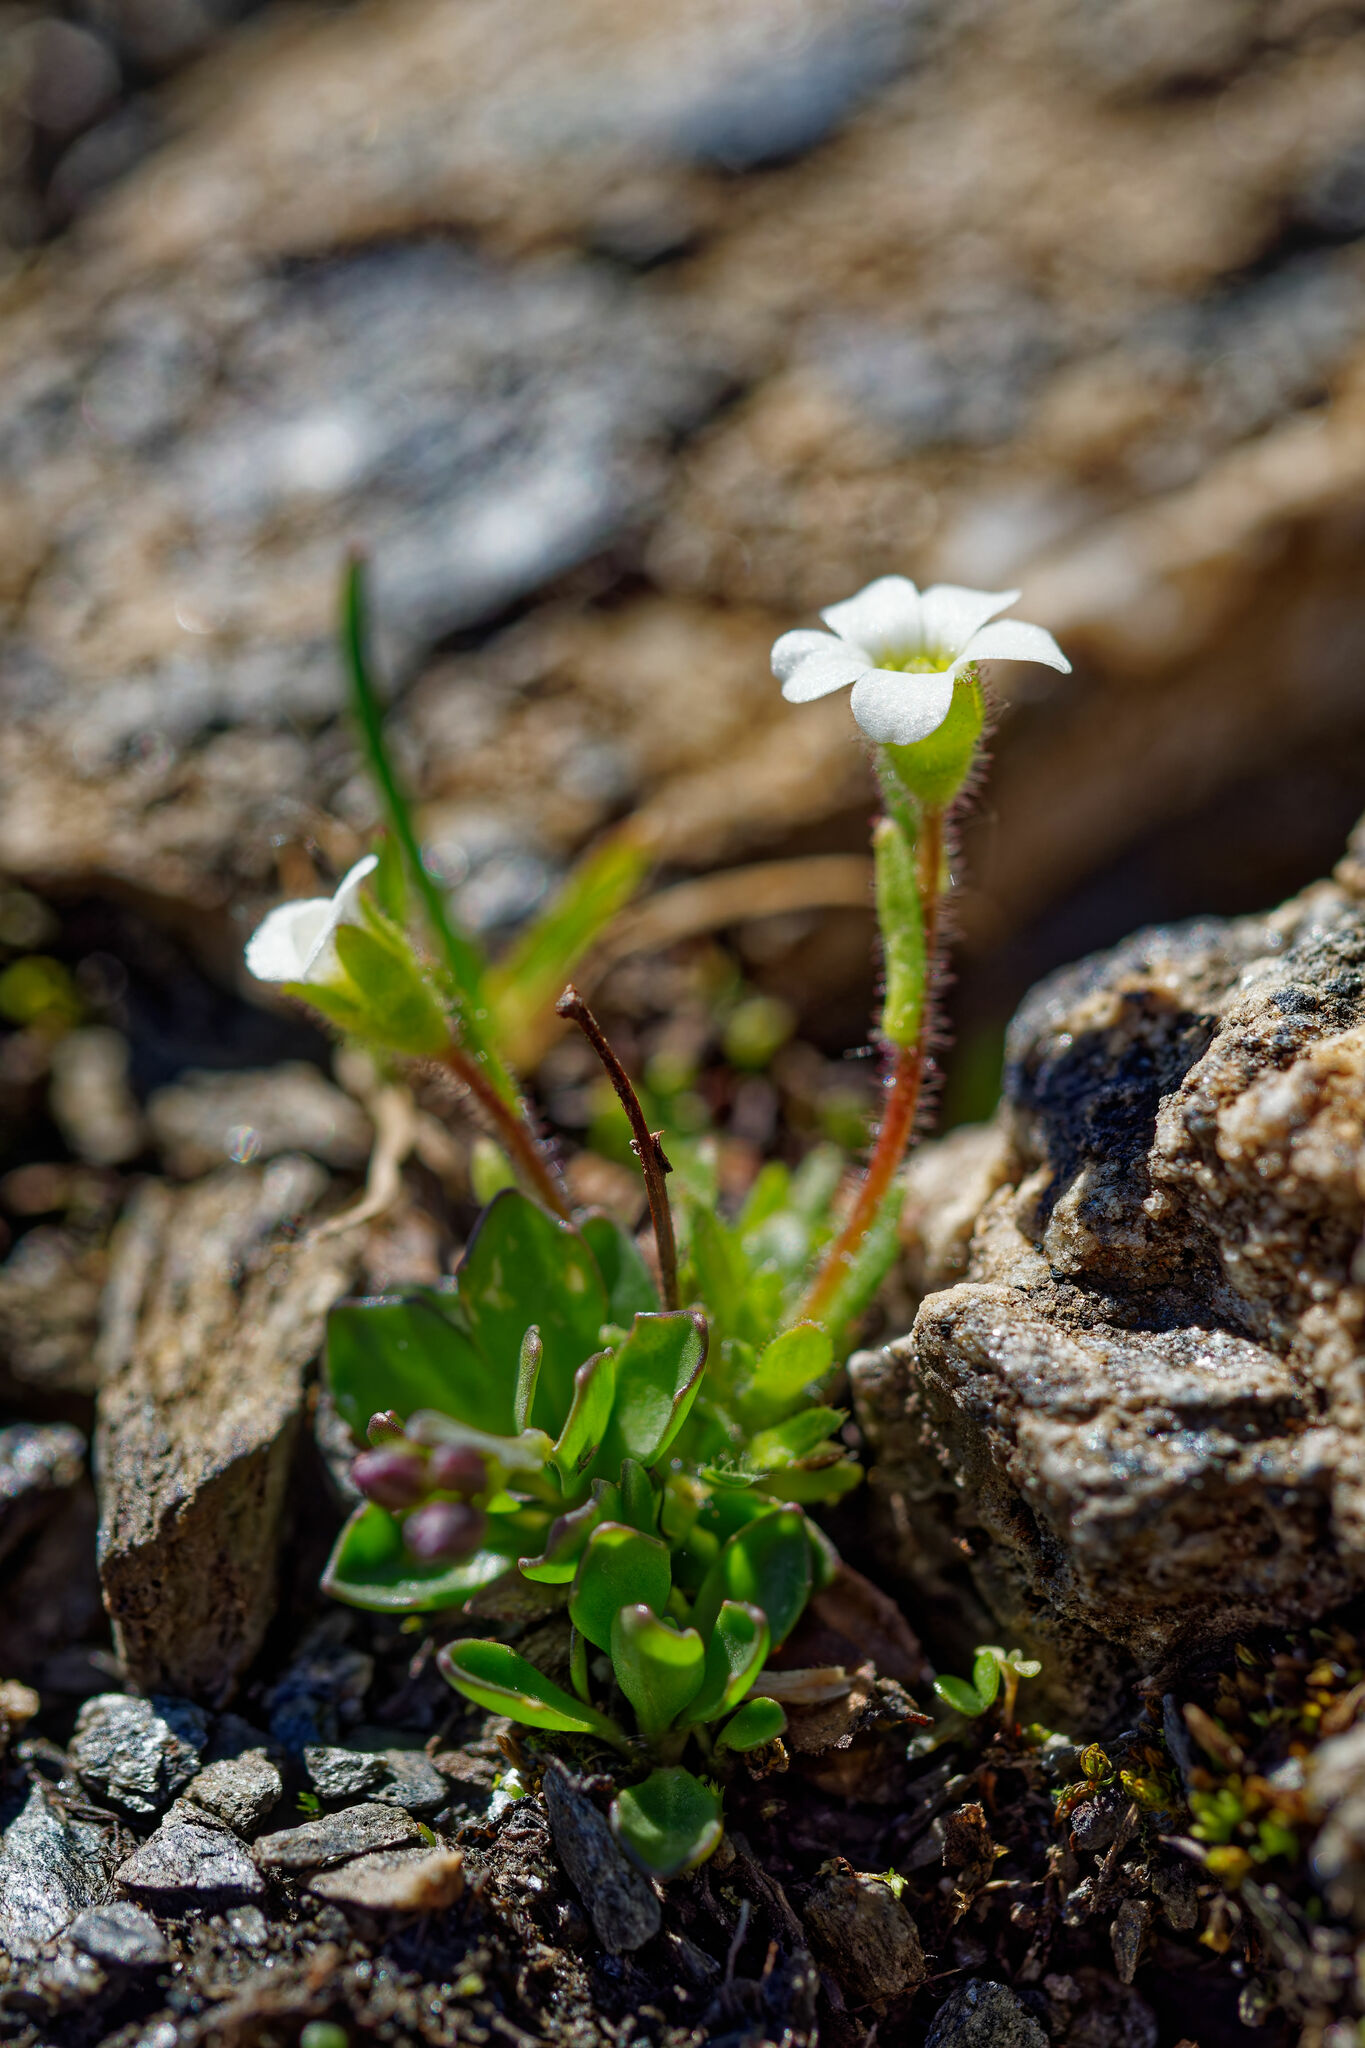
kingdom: Plantae
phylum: Tracheophyta
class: Magnoliopsida
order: Saxifragales
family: Saxifragaceae
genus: Saxifraga
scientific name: Saxifraga androsacea
